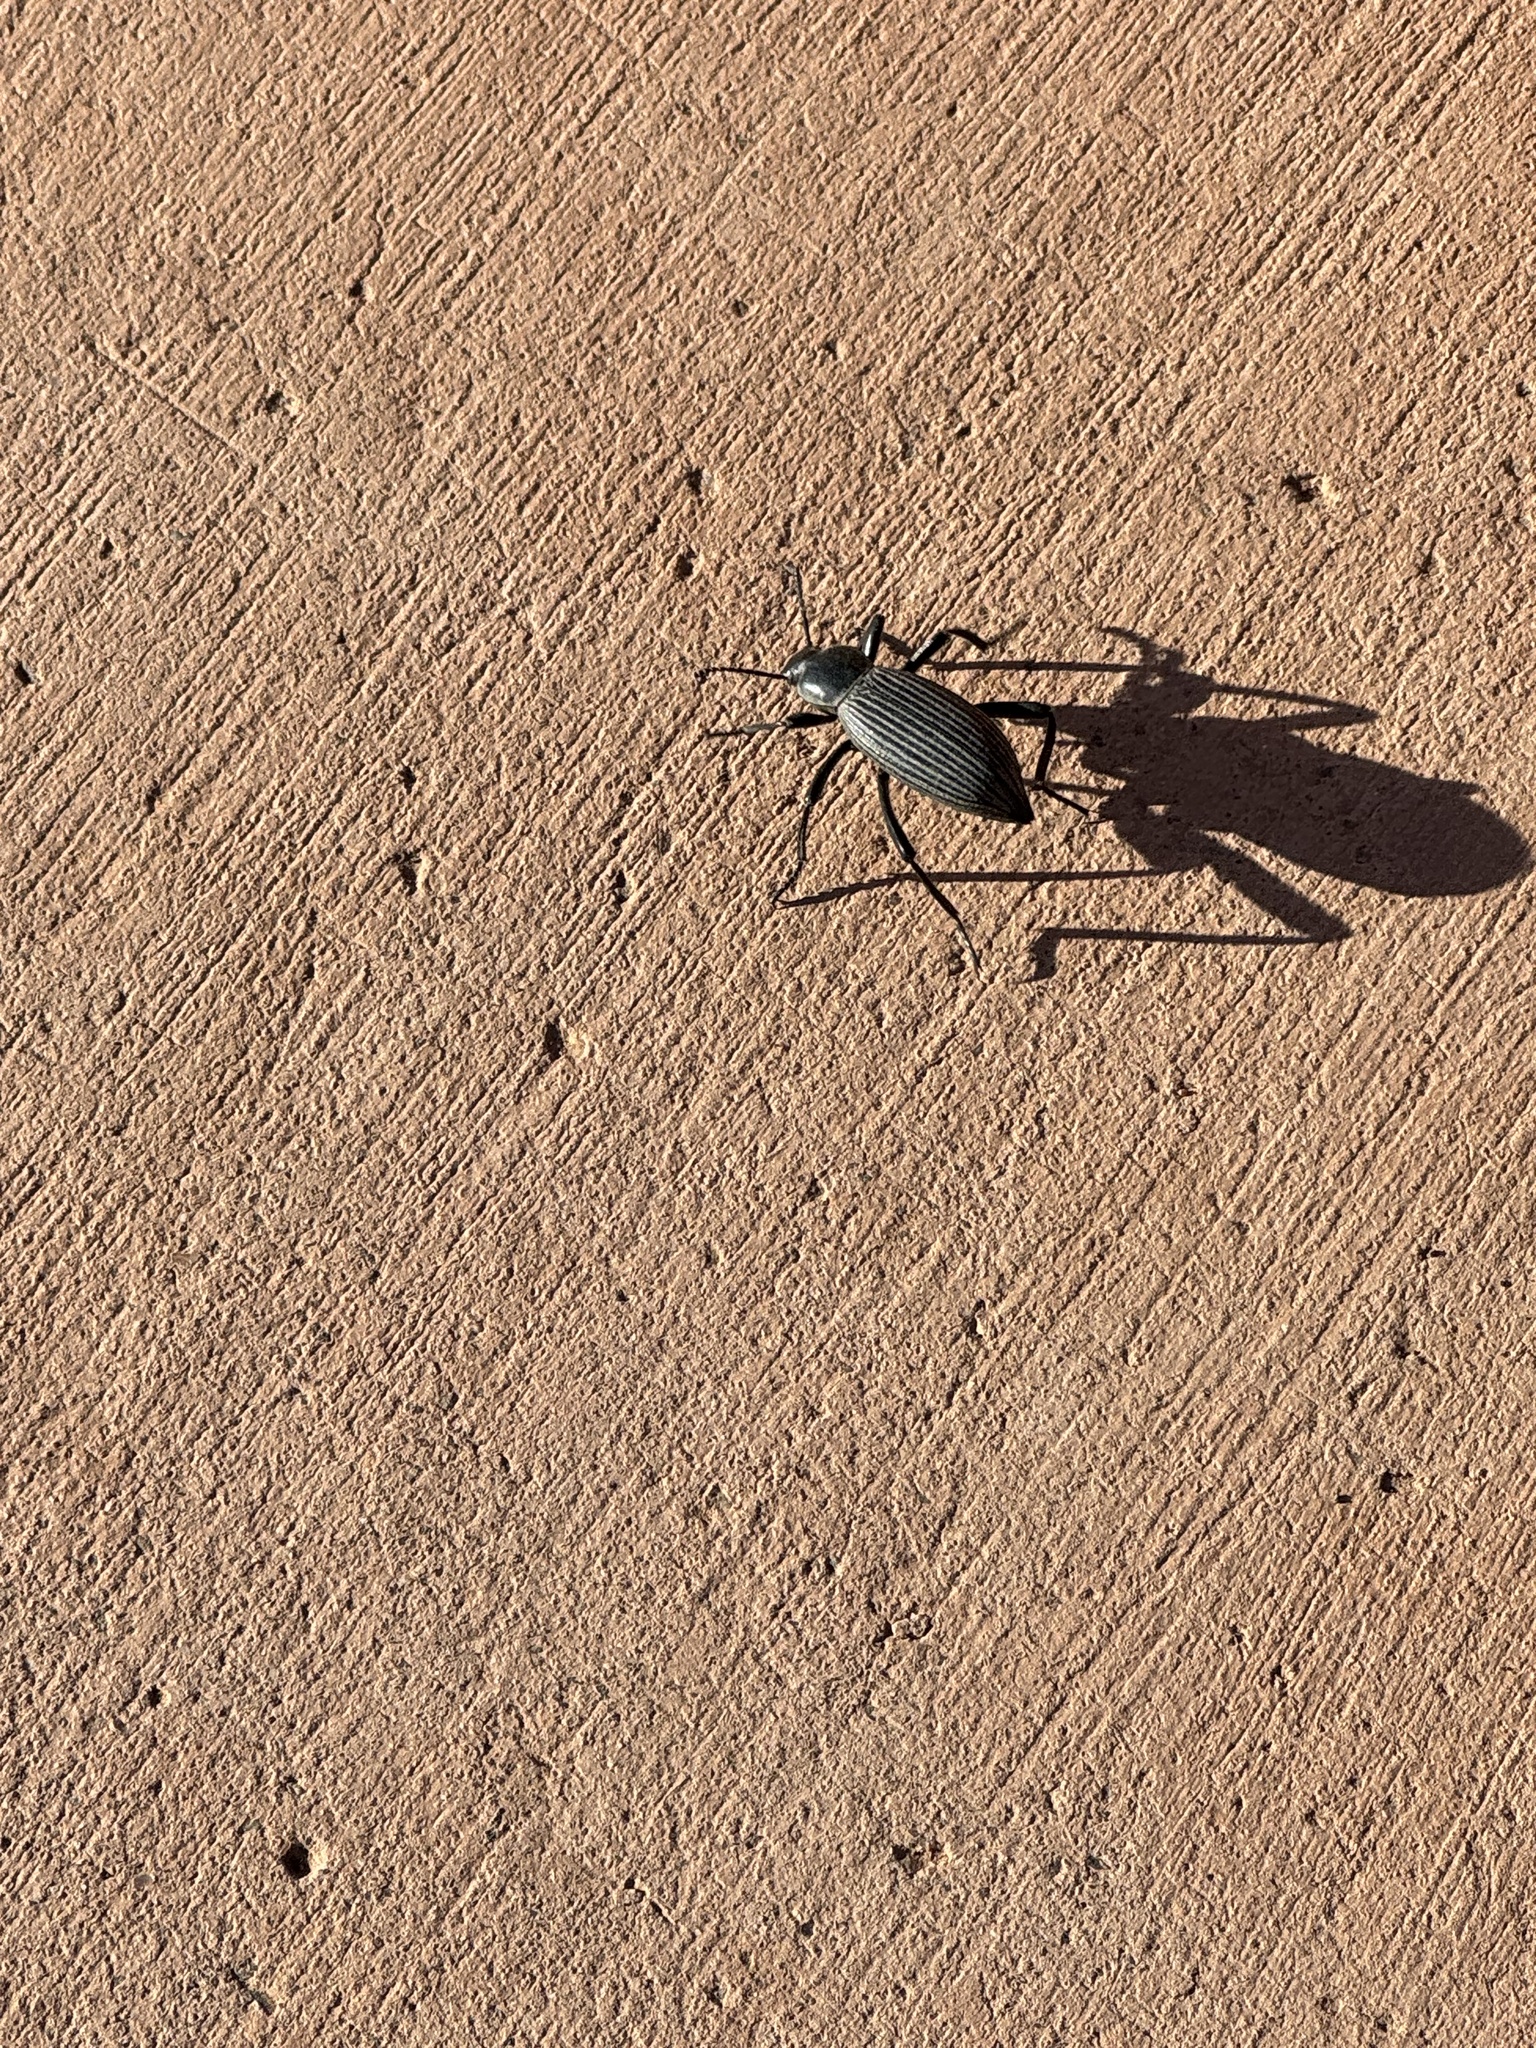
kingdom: Animalia
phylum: Arthropoda
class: Insecta
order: Coleoptera
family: Tenebrionidae
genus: Eleodes
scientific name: Eleodes hispilabris
